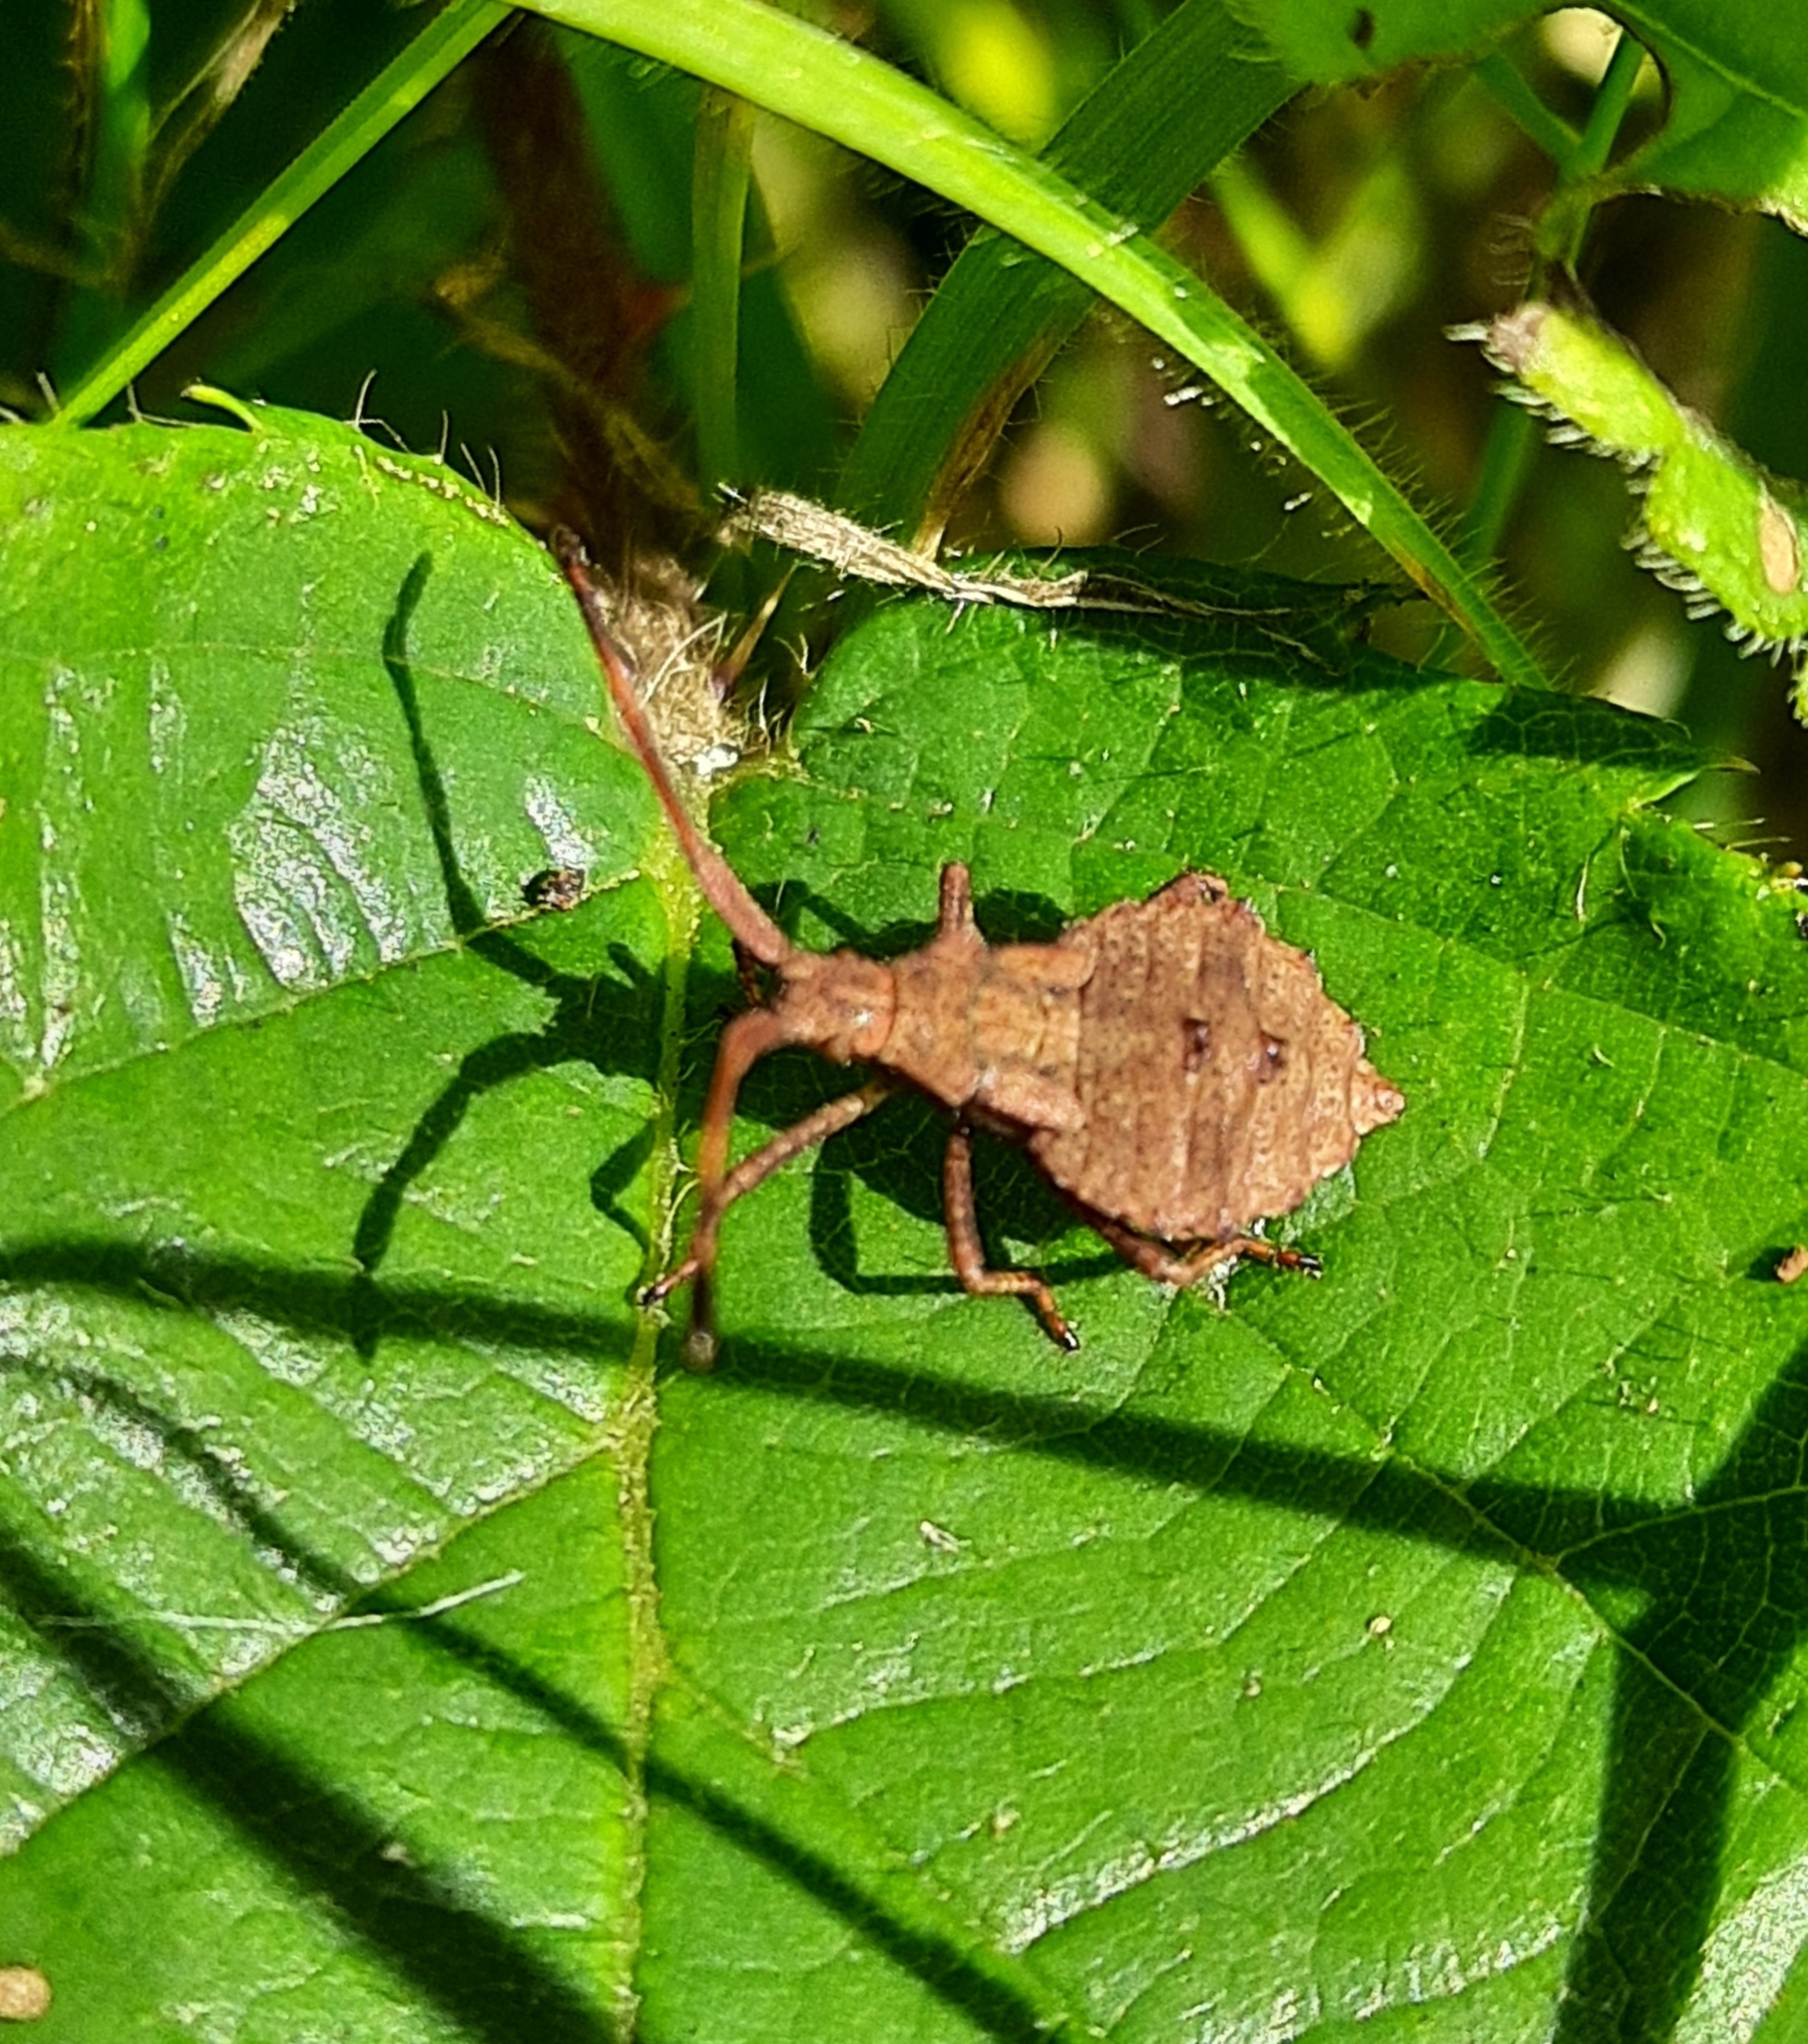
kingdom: Animalia
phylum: Arthropoda
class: Insecta
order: Hemiptera
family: Coreidae
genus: Coreus
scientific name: Coreus marginatus
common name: Dock bug
